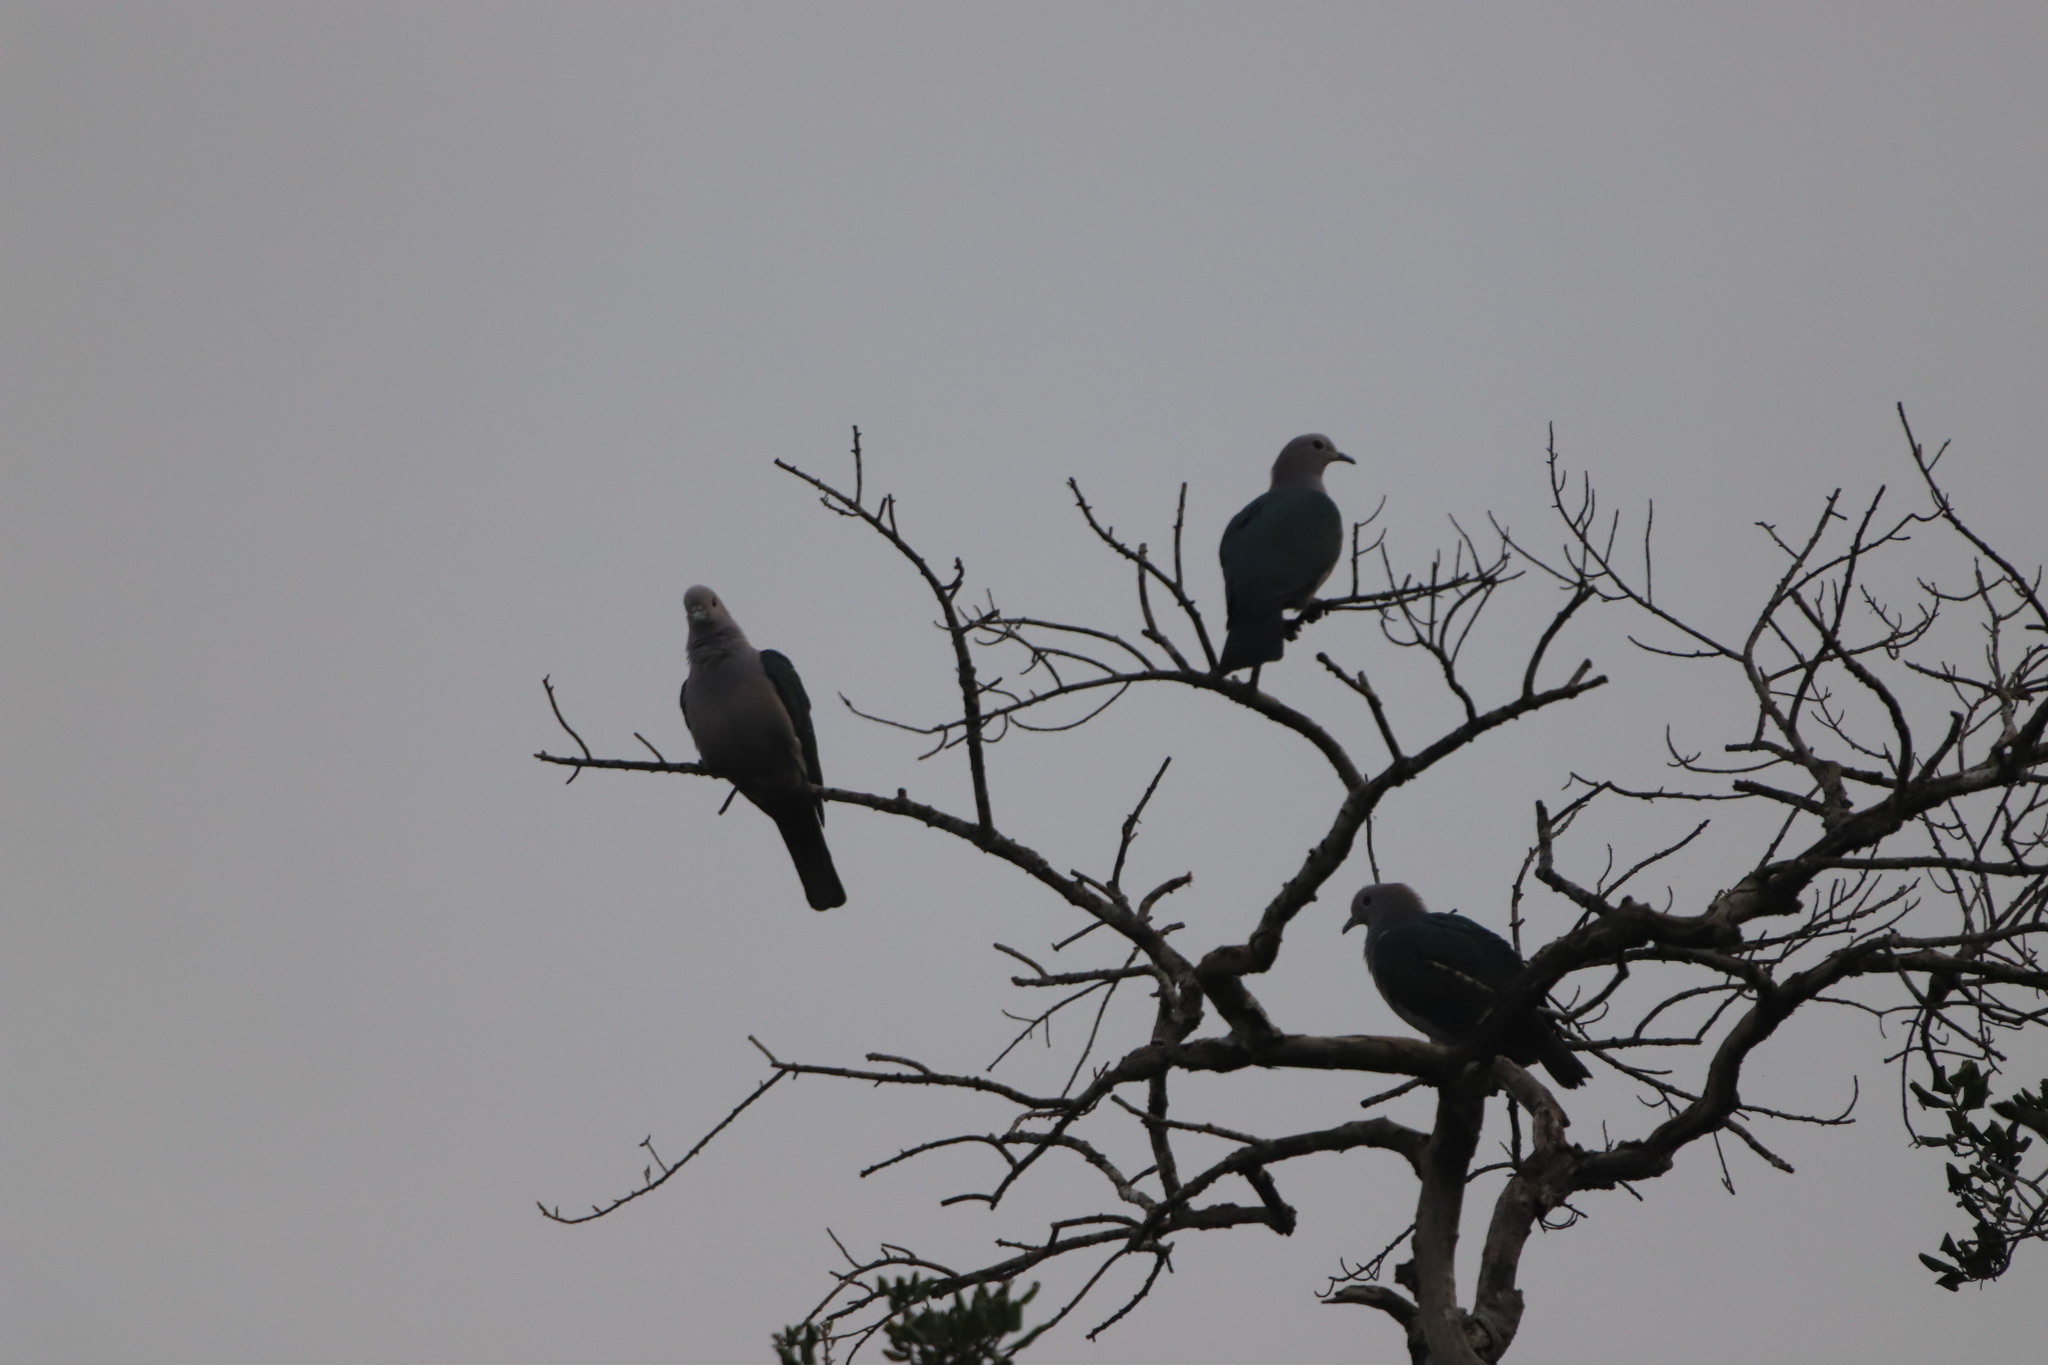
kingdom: Animalia
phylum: Chordata
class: Aves
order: Columbiformes
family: Columbidae
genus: Ducula
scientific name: Ducula aenea
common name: Green imperial pigeon
